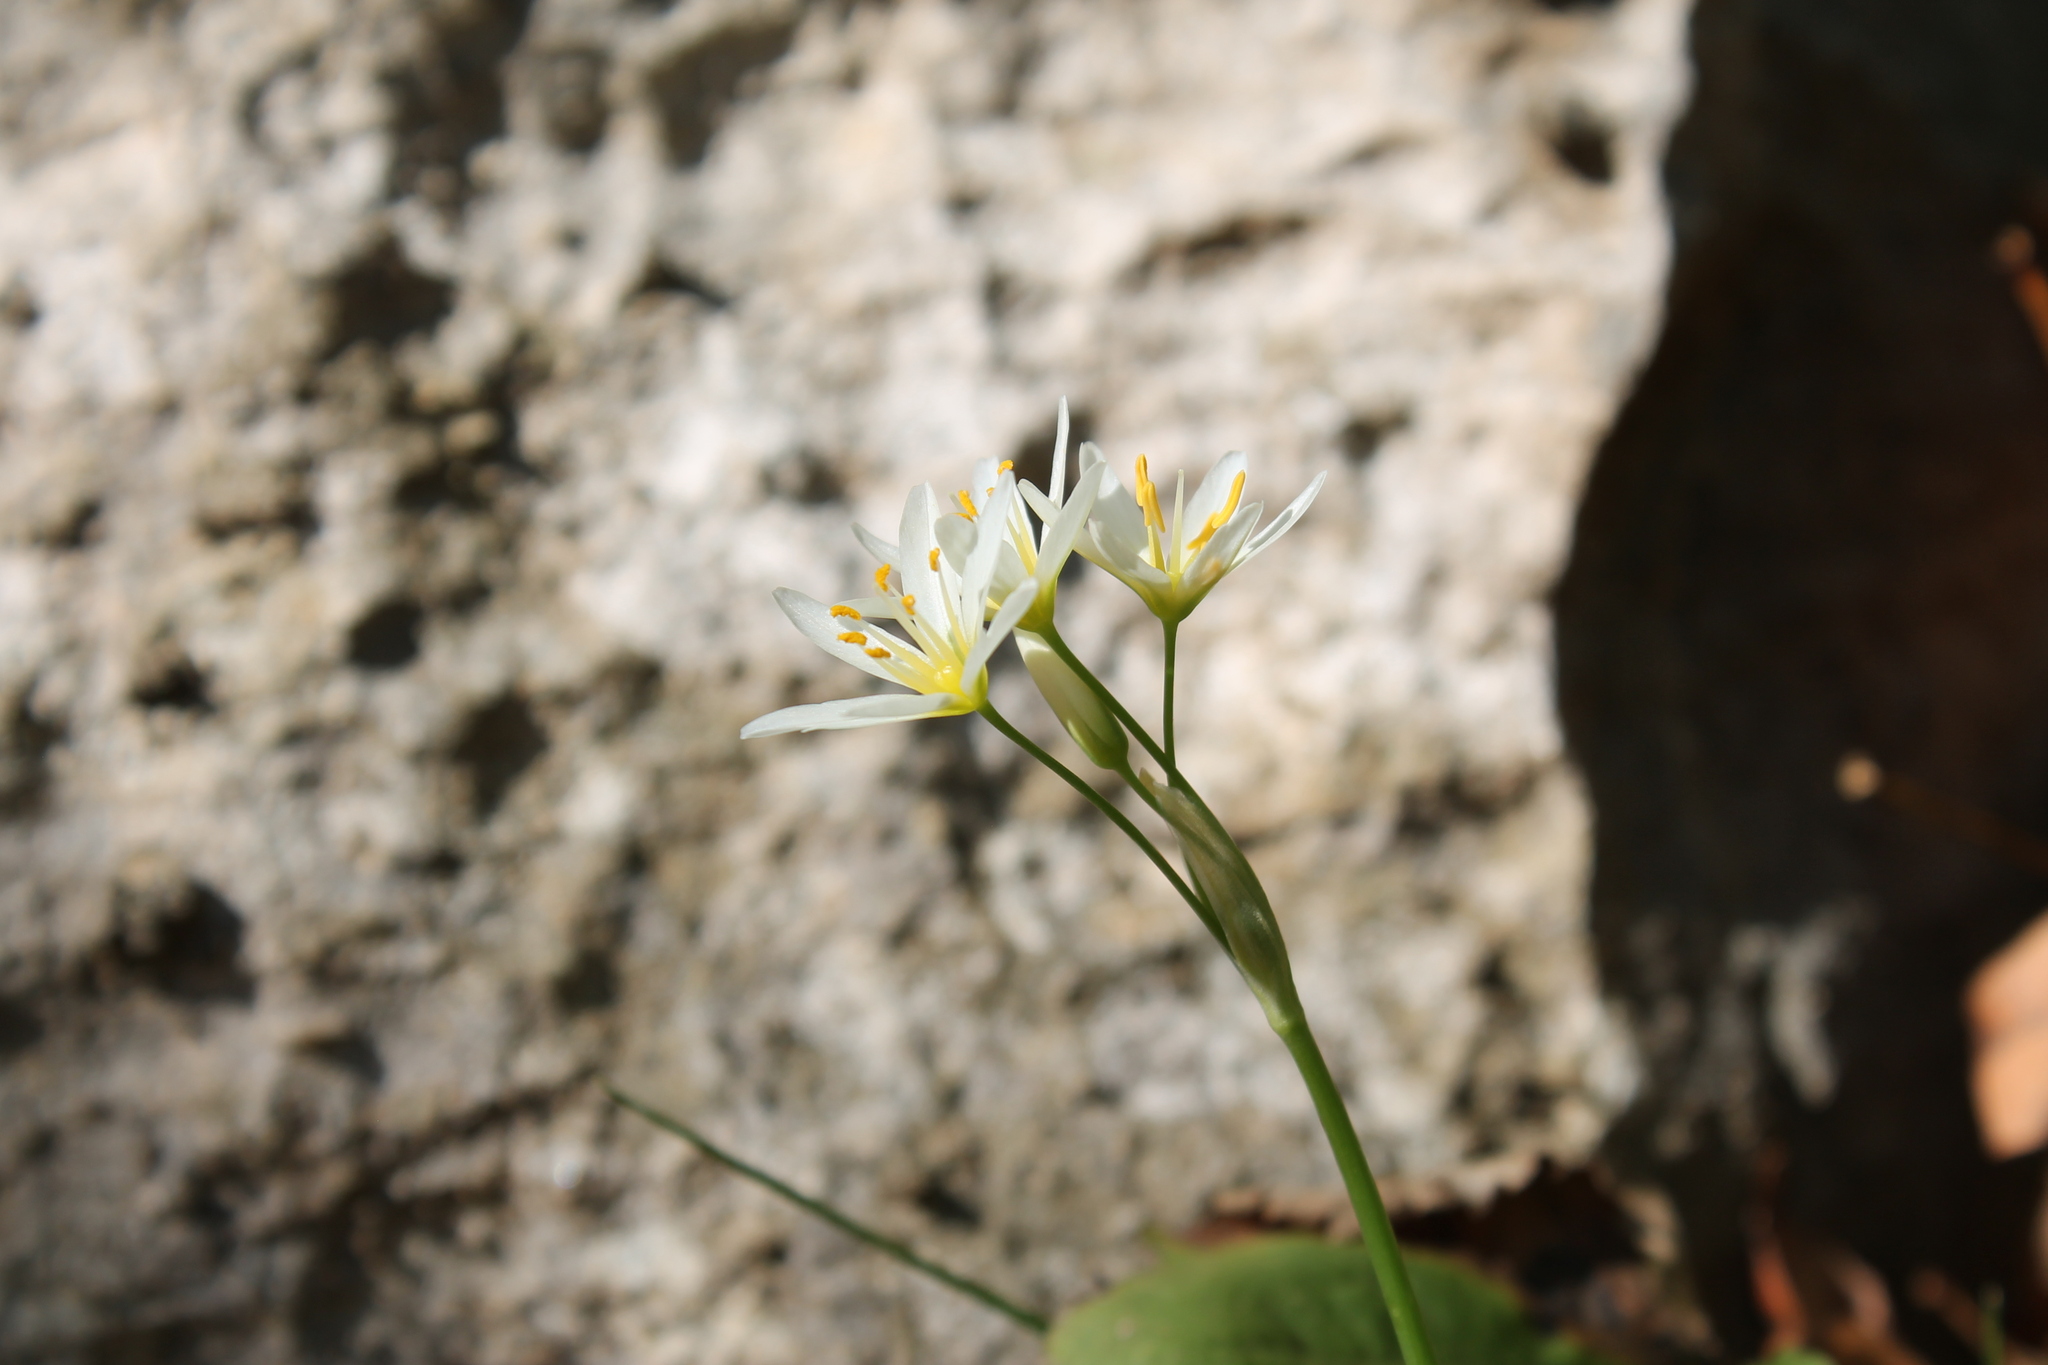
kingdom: Plantae
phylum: Tracheophyta
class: Liliopsida
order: Asparagales
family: Amaryllidaceae
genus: Nothoscordum
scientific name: Nothoscordum bivalve
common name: Crow-poison
